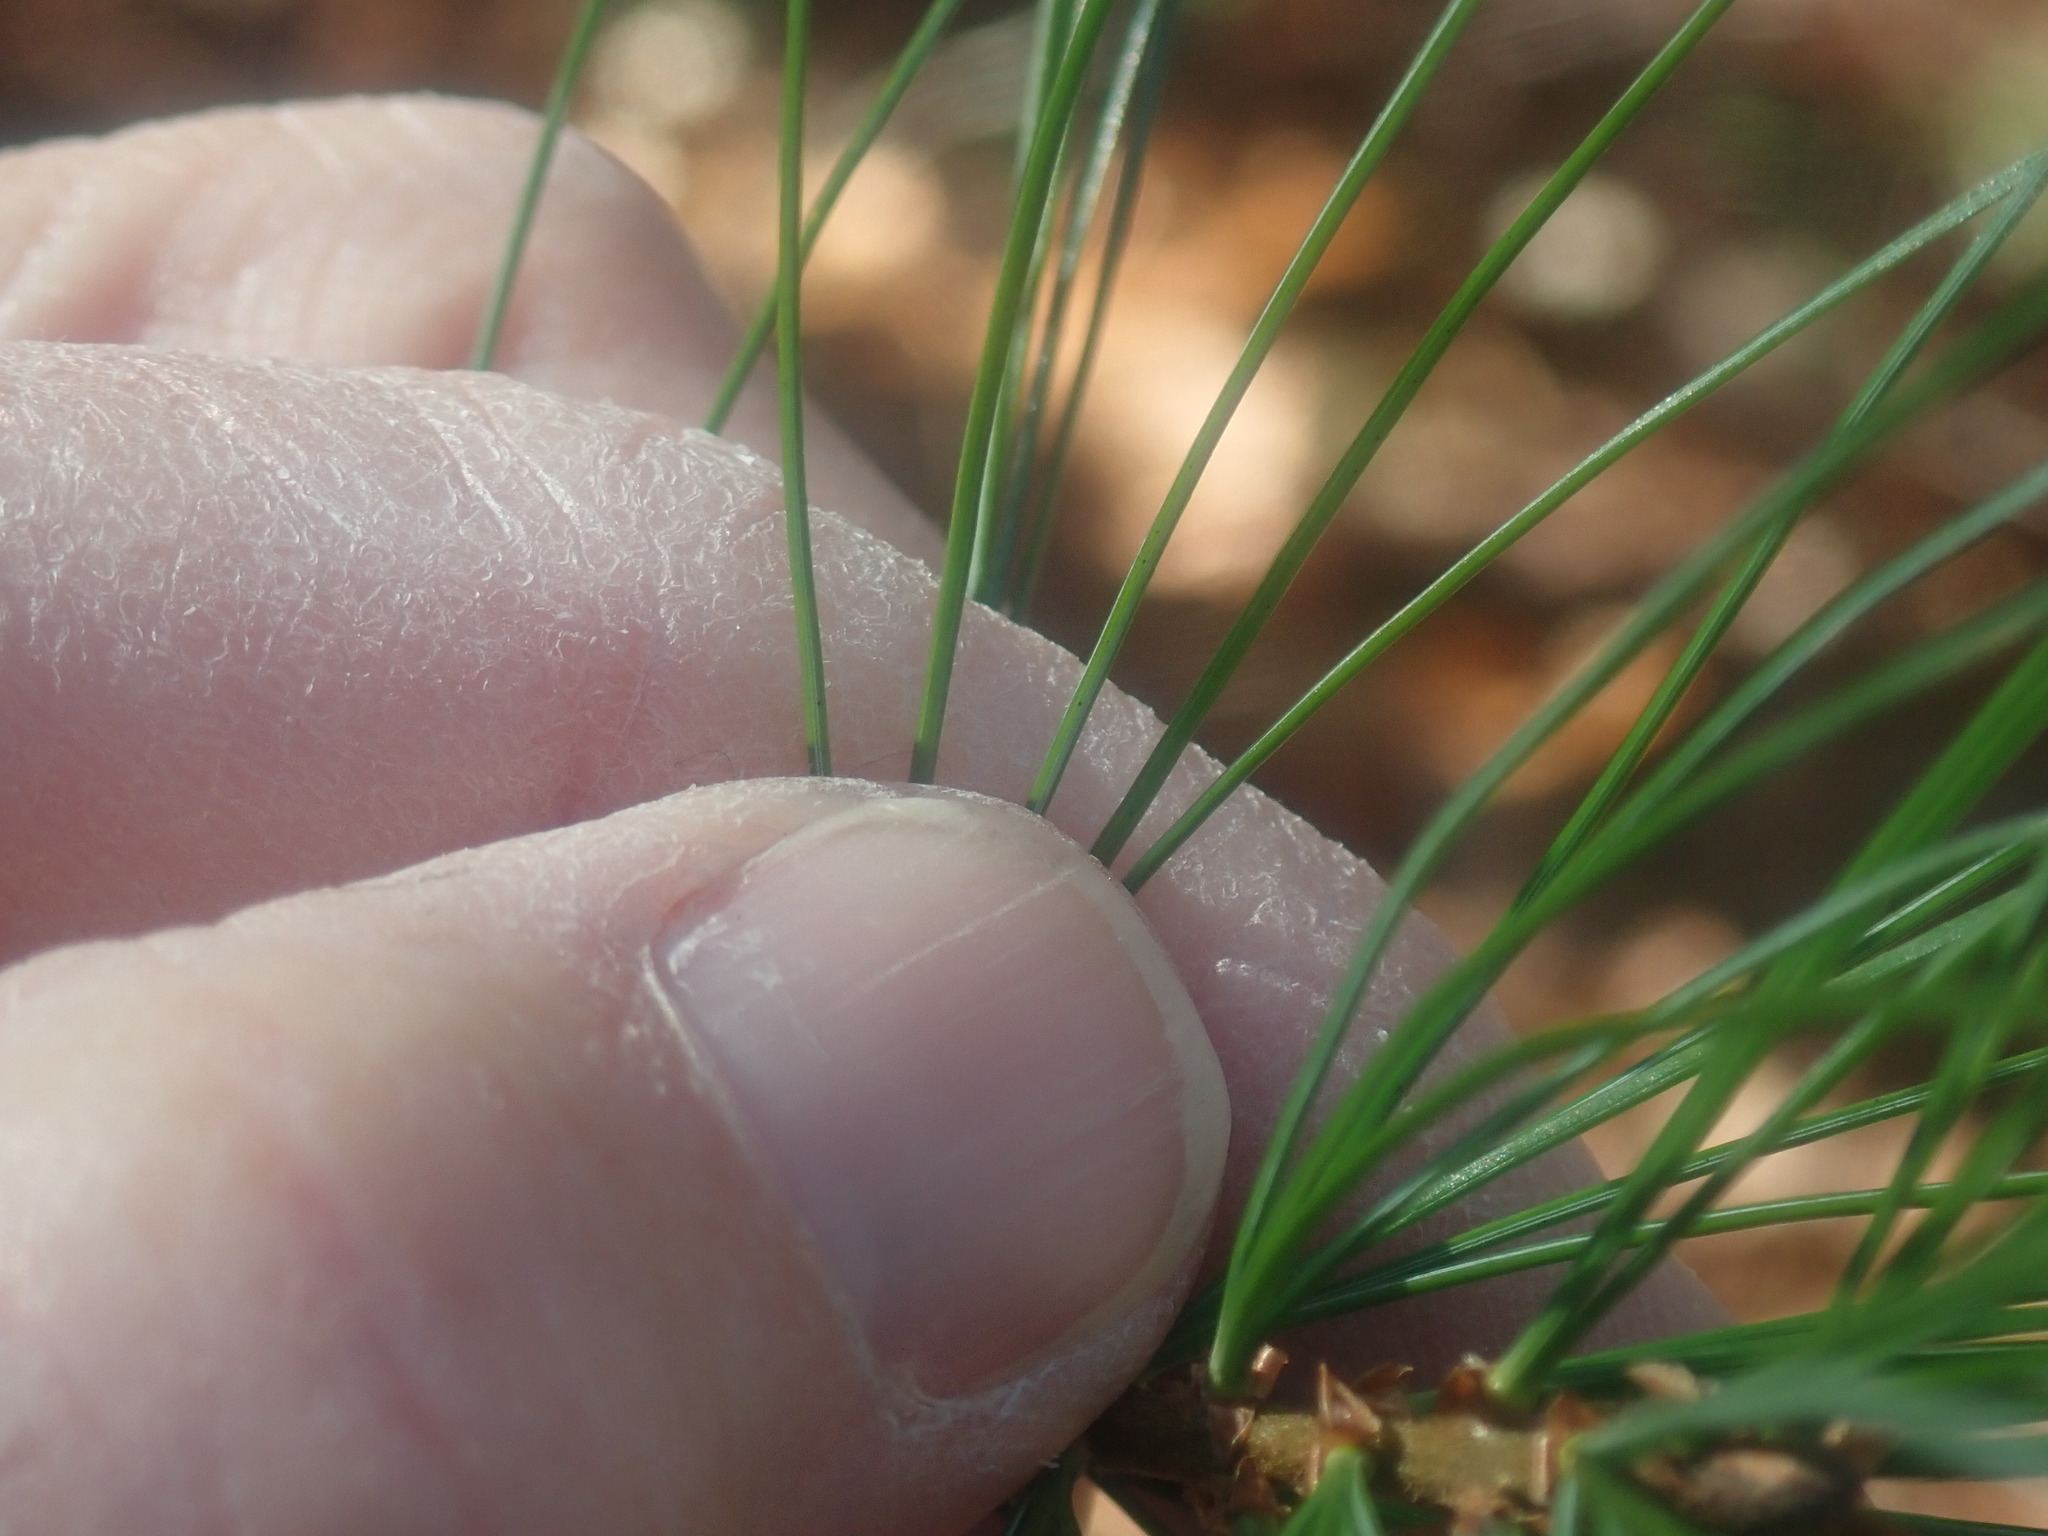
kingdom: Plantae
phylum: Tracheophyta
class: Pinopsida
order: Pinales
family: Pinaceae
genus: Pinus
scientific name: Pinus strobus
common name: Weymouth pine
